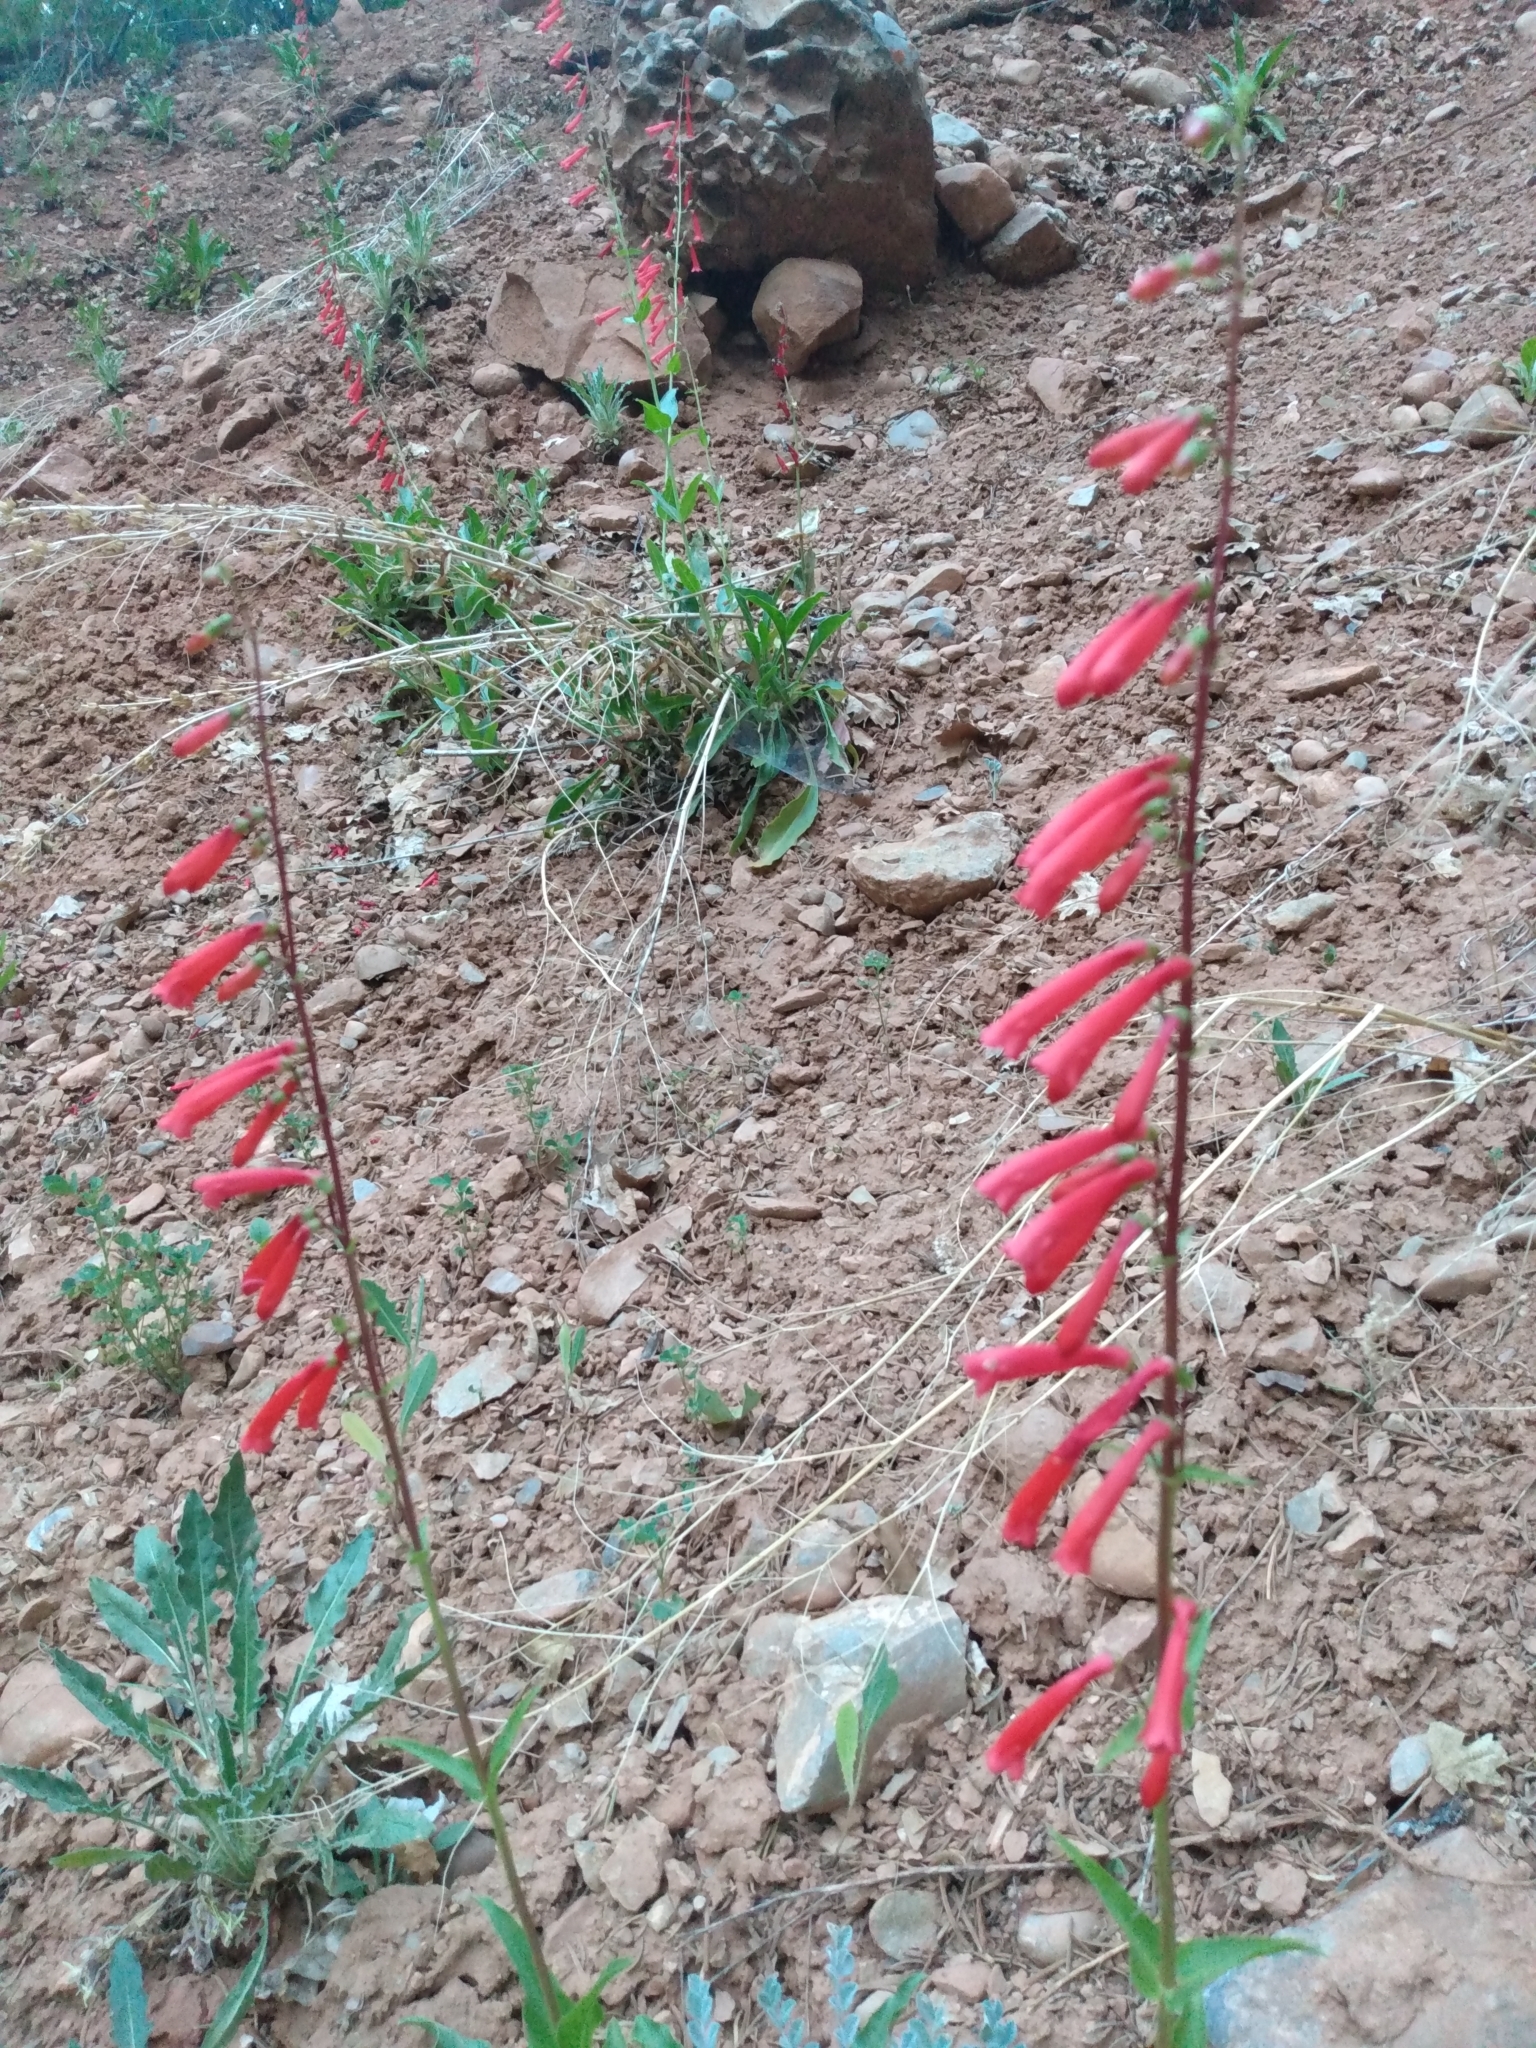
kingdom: Plantae
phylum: Tracheophyta
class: Magnoliopsida
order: Lamiales
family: Plantaginaceae
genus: Penstemon
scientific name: Penstemon eatonii
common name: Eaton's penstemon
